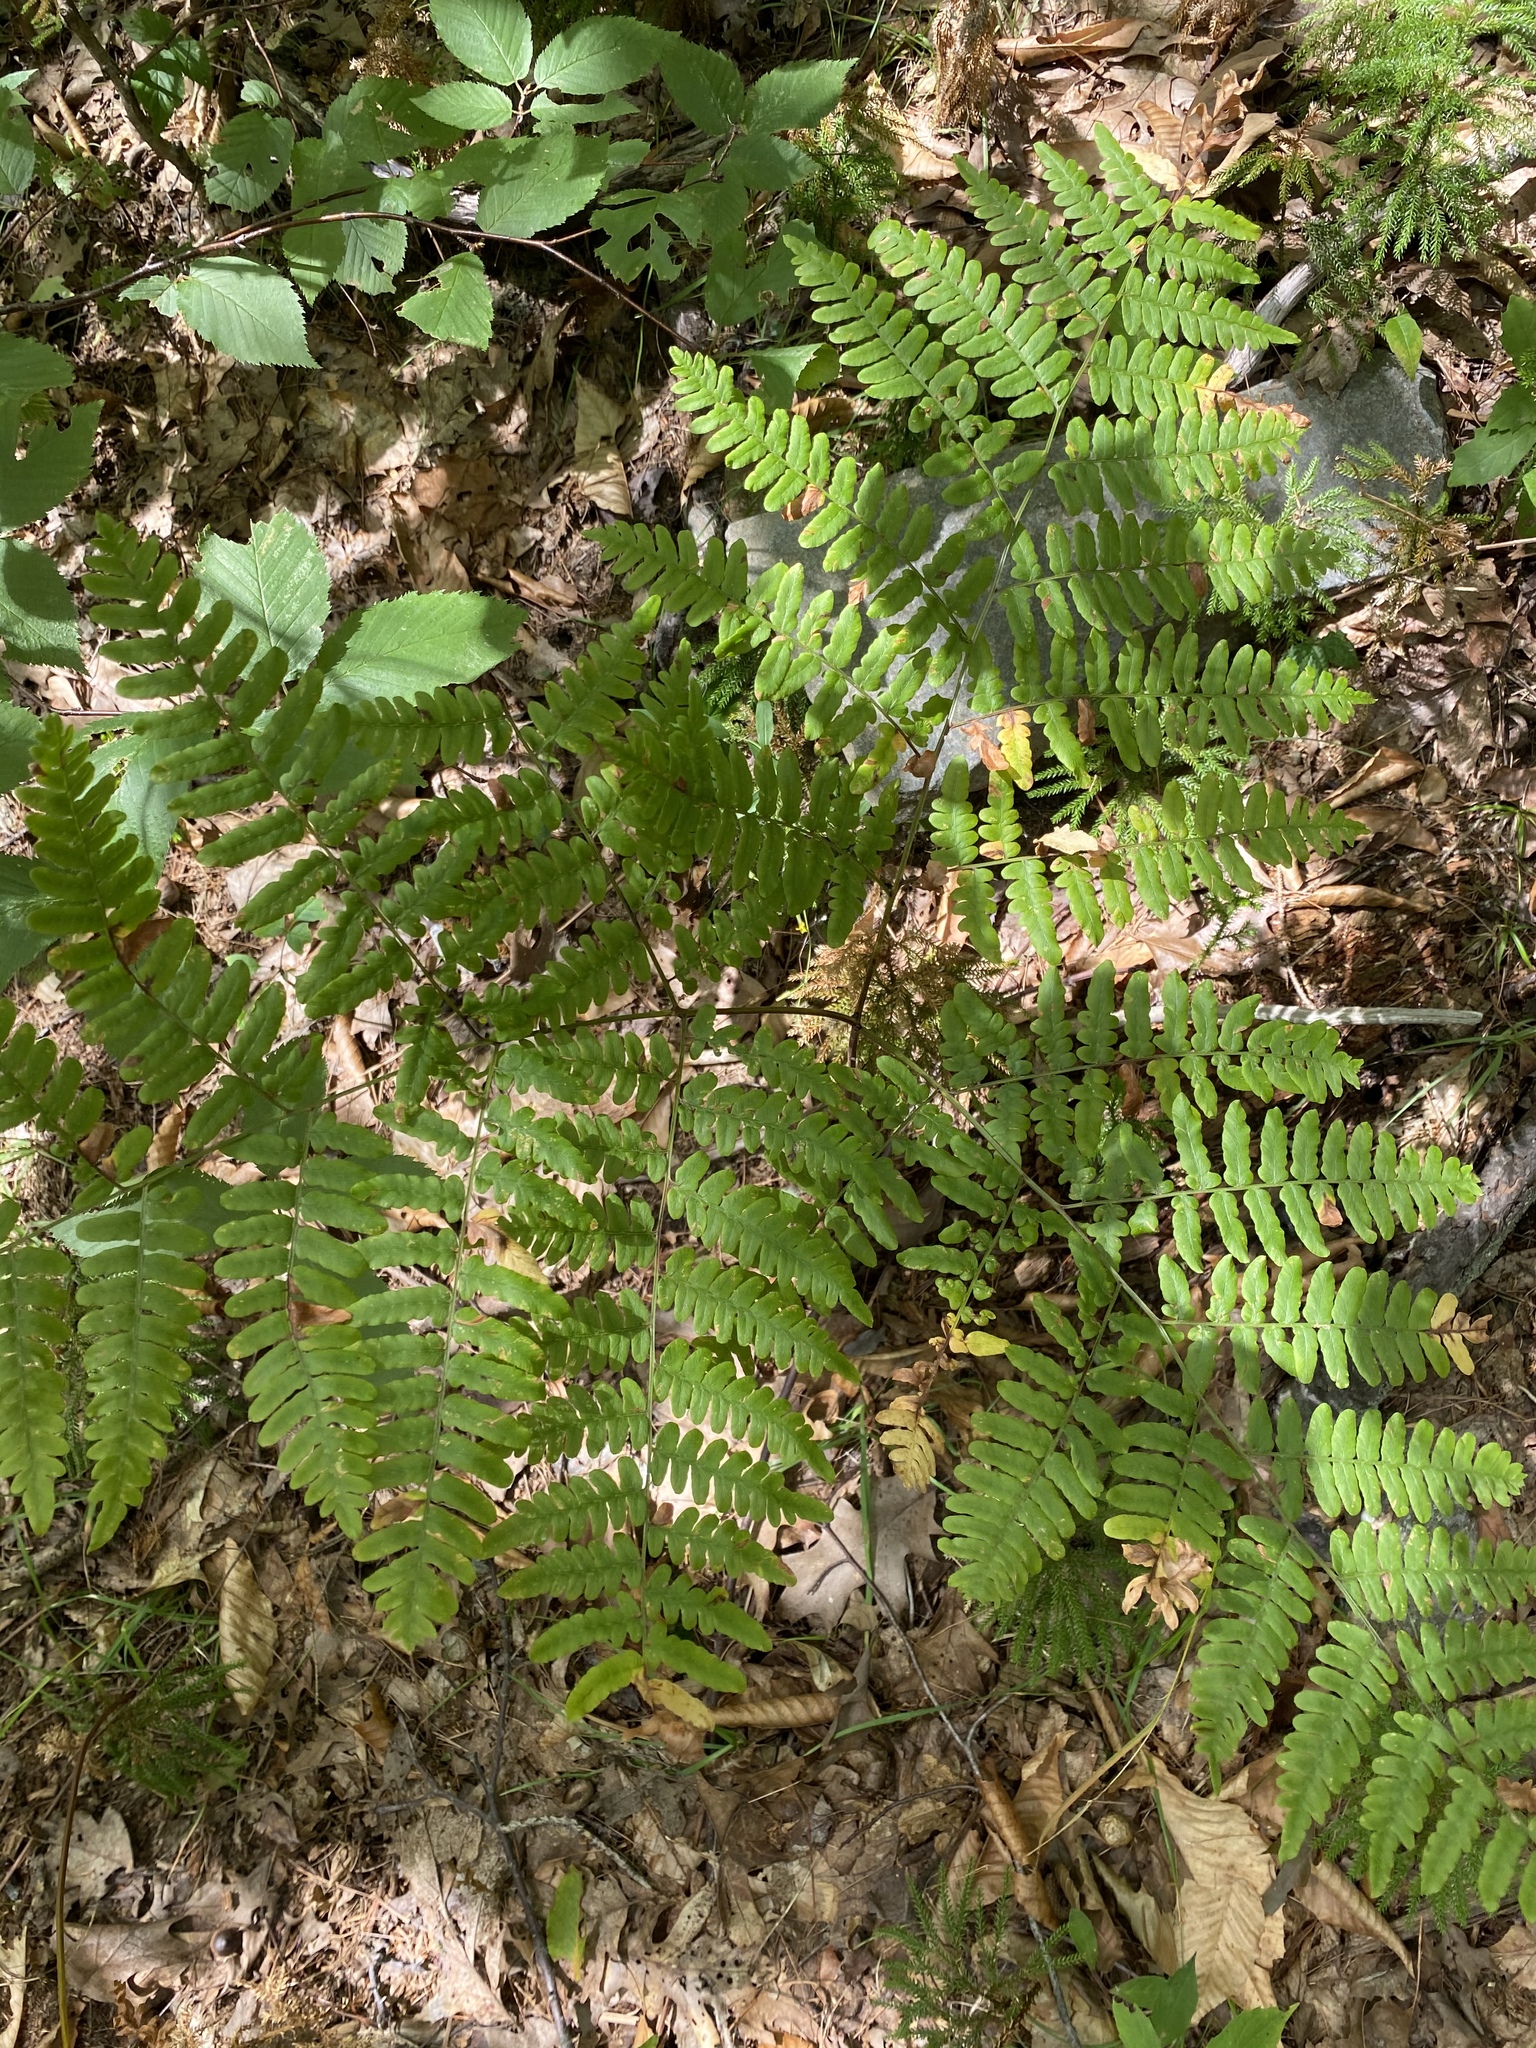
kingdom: Plantae
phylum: Tracheophyta
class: Polypodiopsida
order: Polypodiales
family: Dennstaedtiaceae
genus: Pteridium
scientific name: Pteridium aquilinum
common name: Bracken
